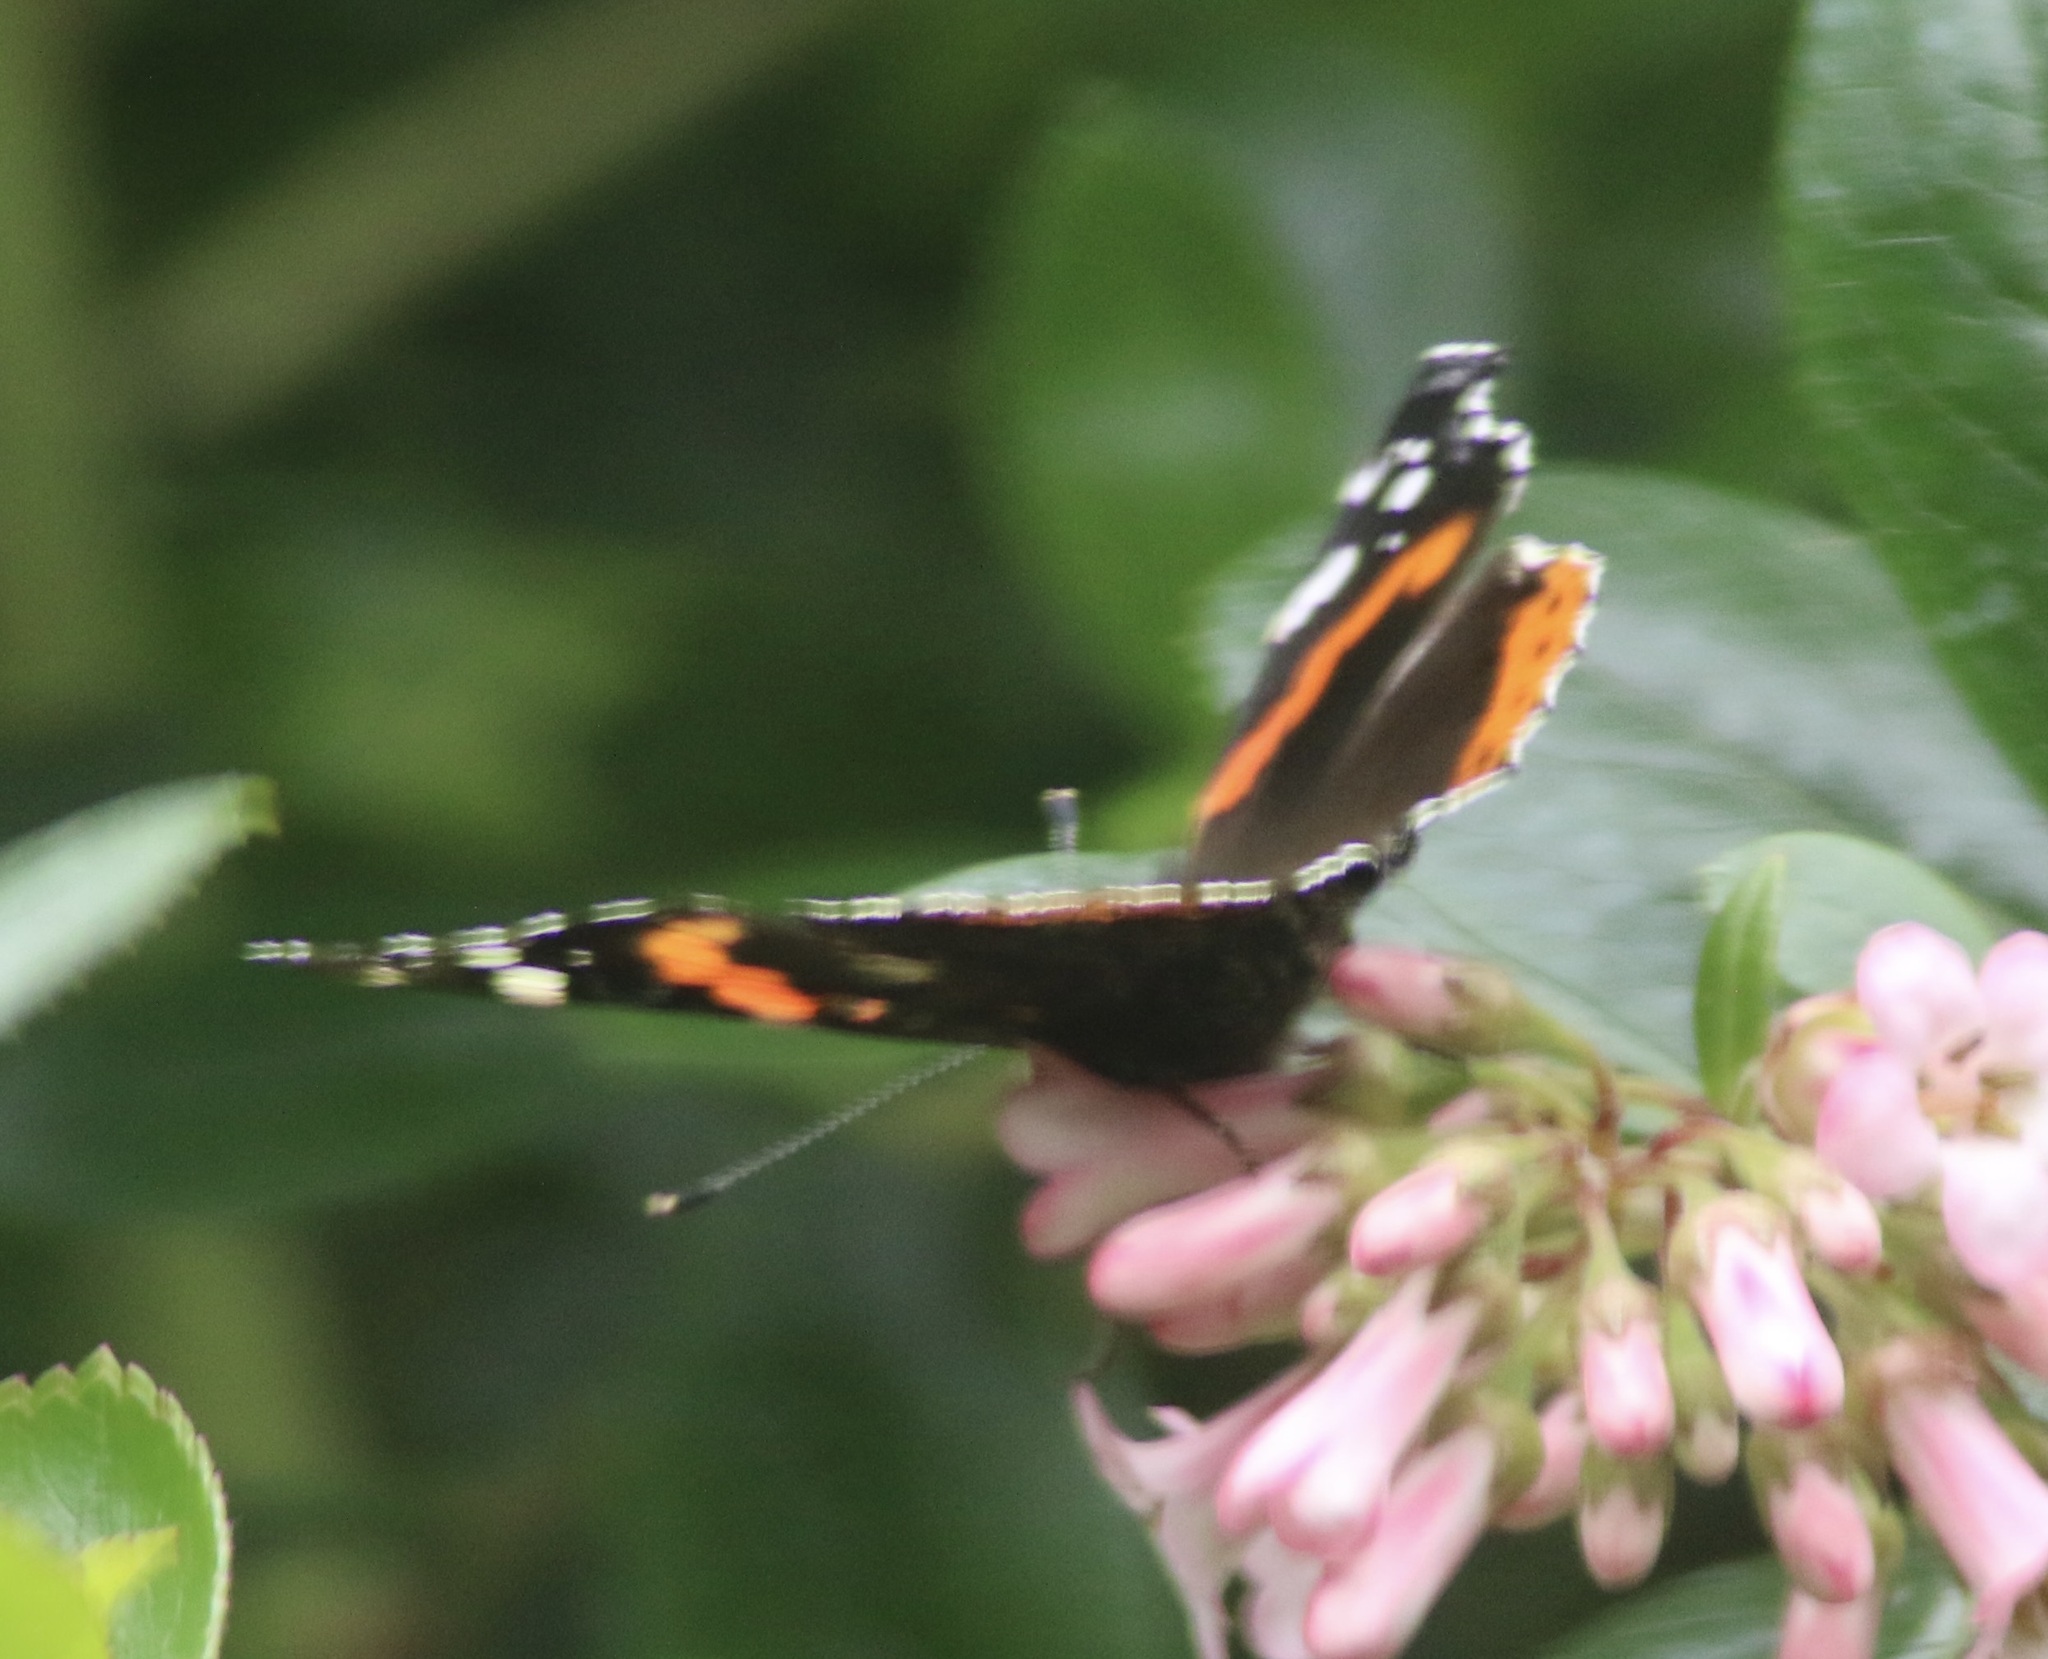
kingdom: Animalia
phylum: Arthropoda
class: Insecta
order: Lepidoptera
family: Nymphalidae
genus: Vanessa
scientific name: Vanessa atalanta
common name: Red admiral
